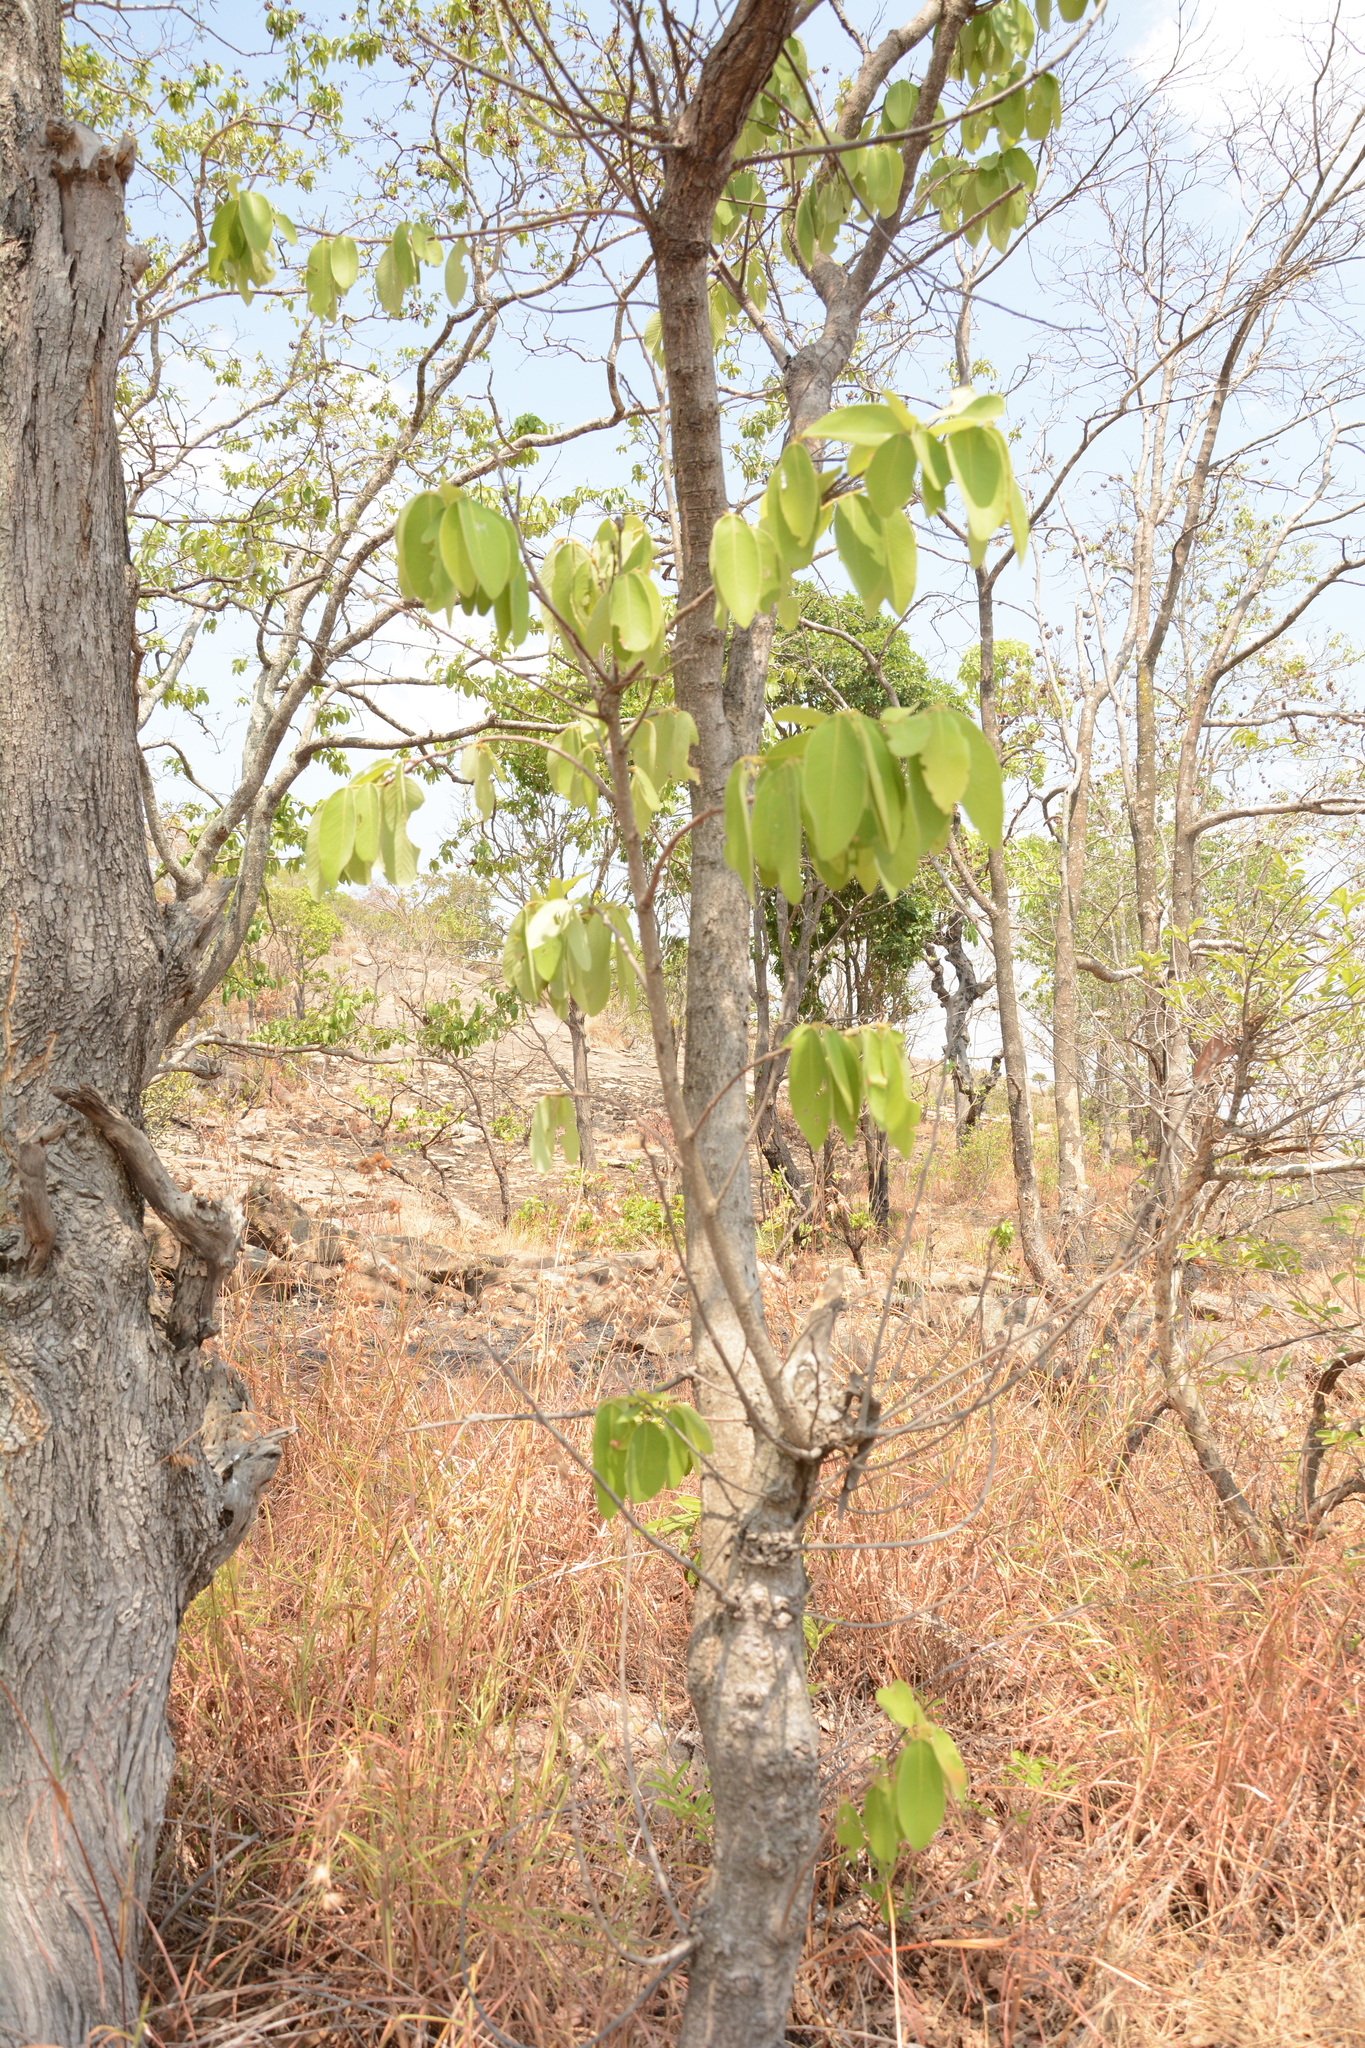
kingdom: Plantae
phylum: Tracheophyta
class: Magnoliopsida
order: Malpighiales
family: Phyllanthaceae
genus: Bridelia
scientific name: Bridelia retusa
